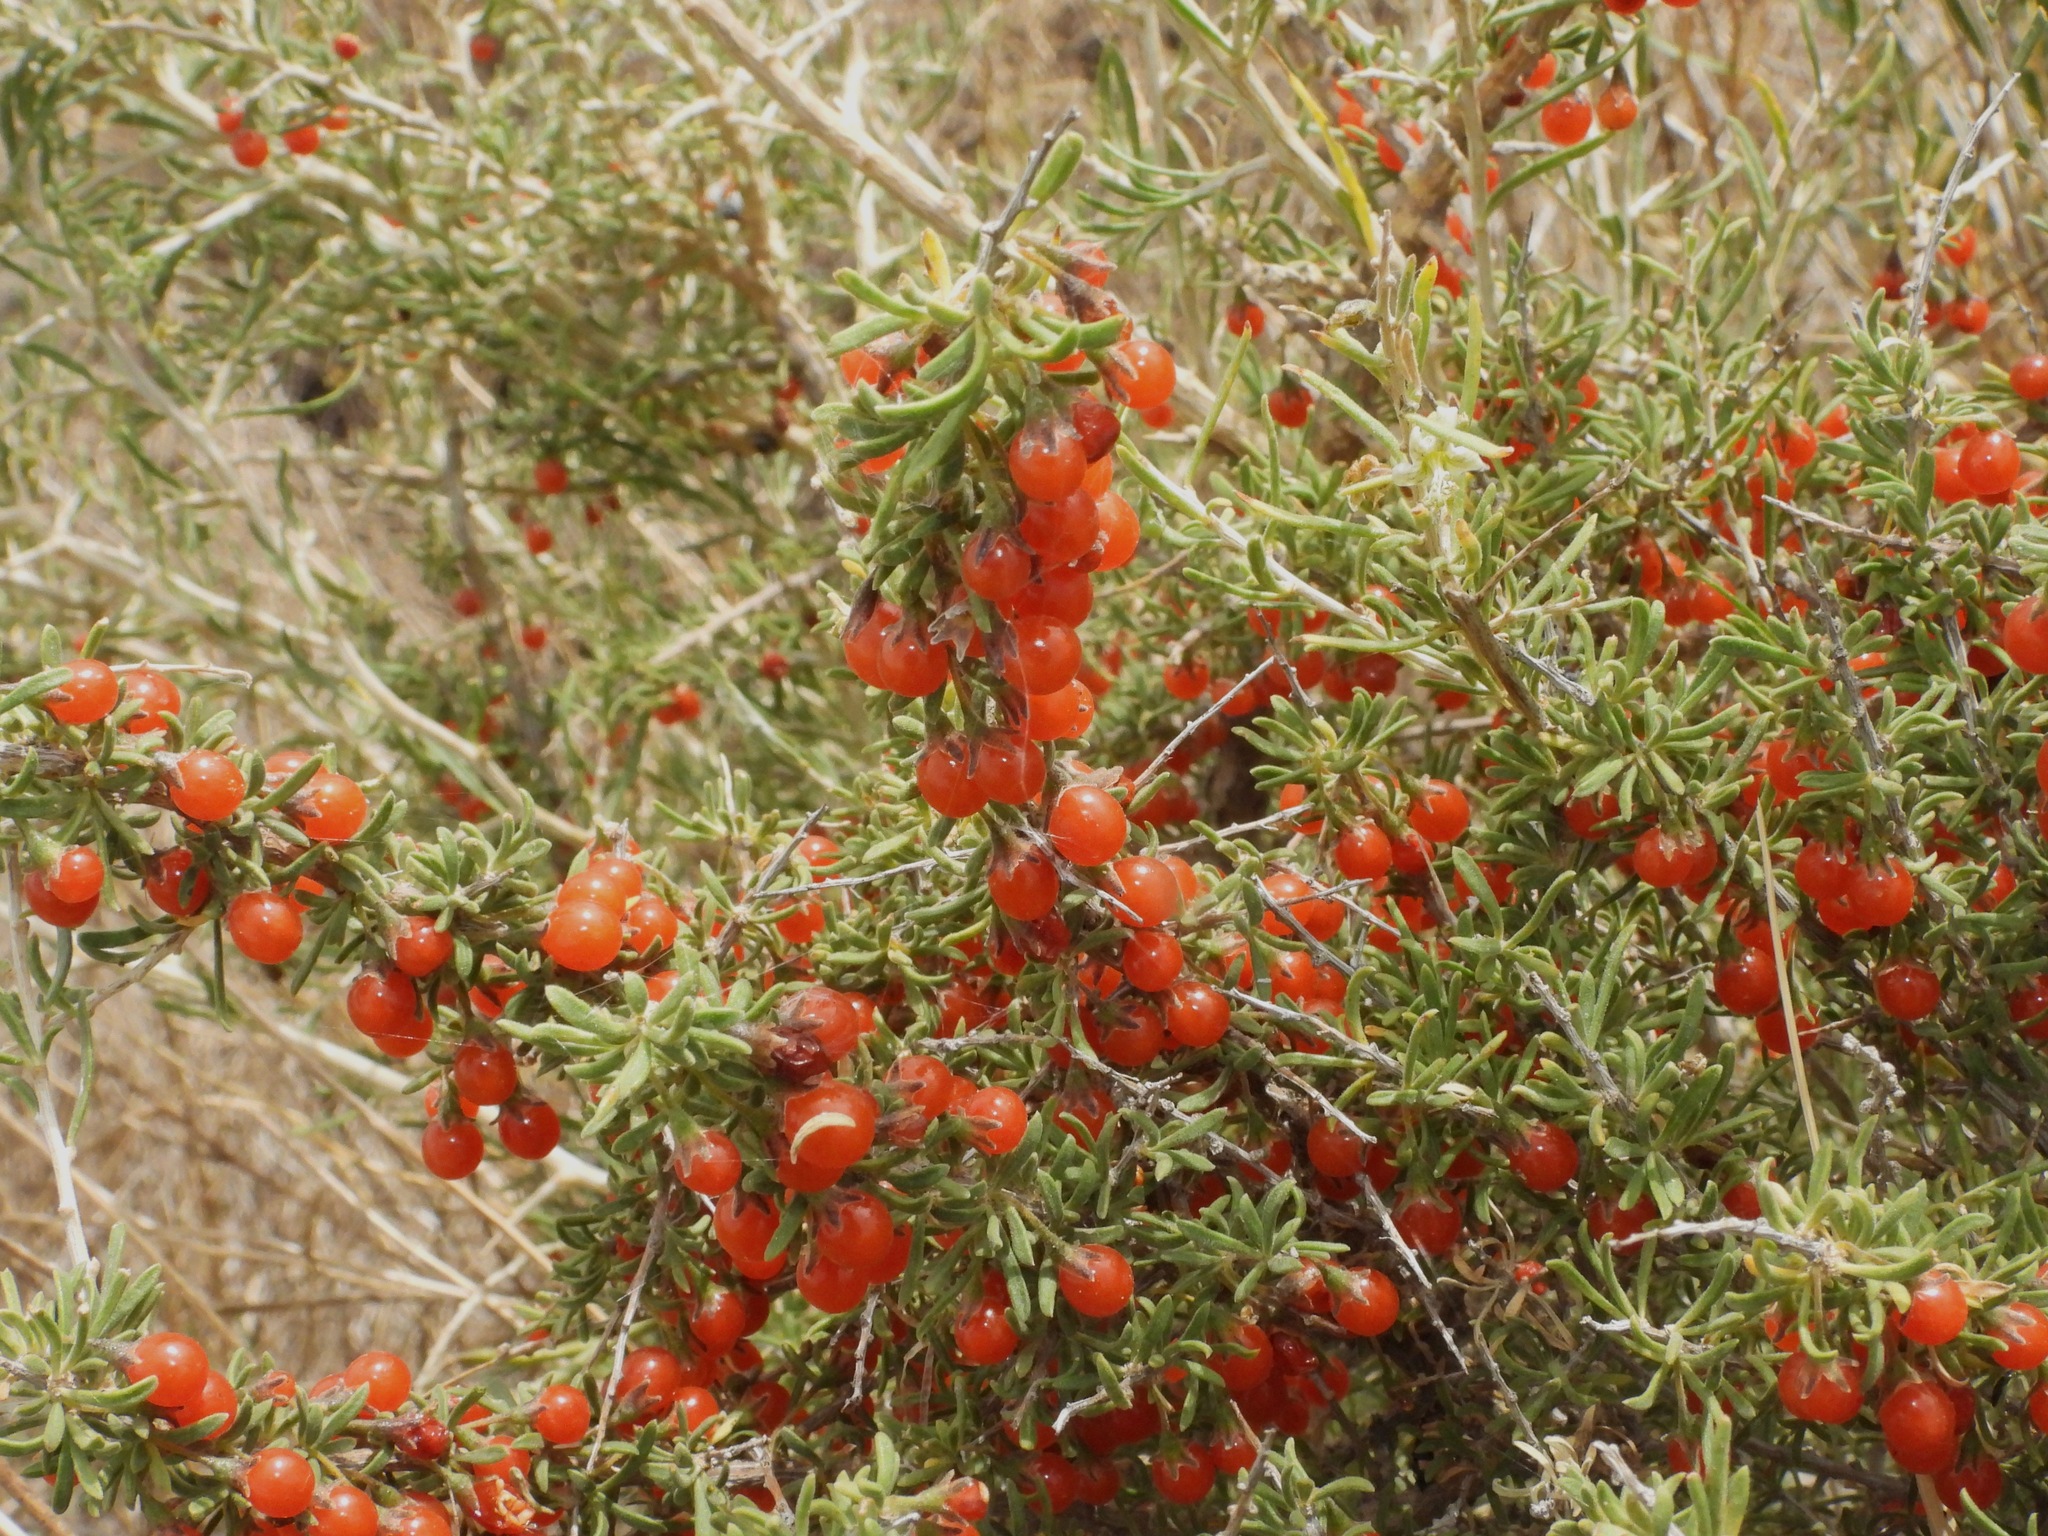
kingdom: Plantae
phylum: Tracheophyta
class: Magnoliopsida
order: Solanales
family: Solanaceae
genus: Lycium
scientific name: Lycium chilense
